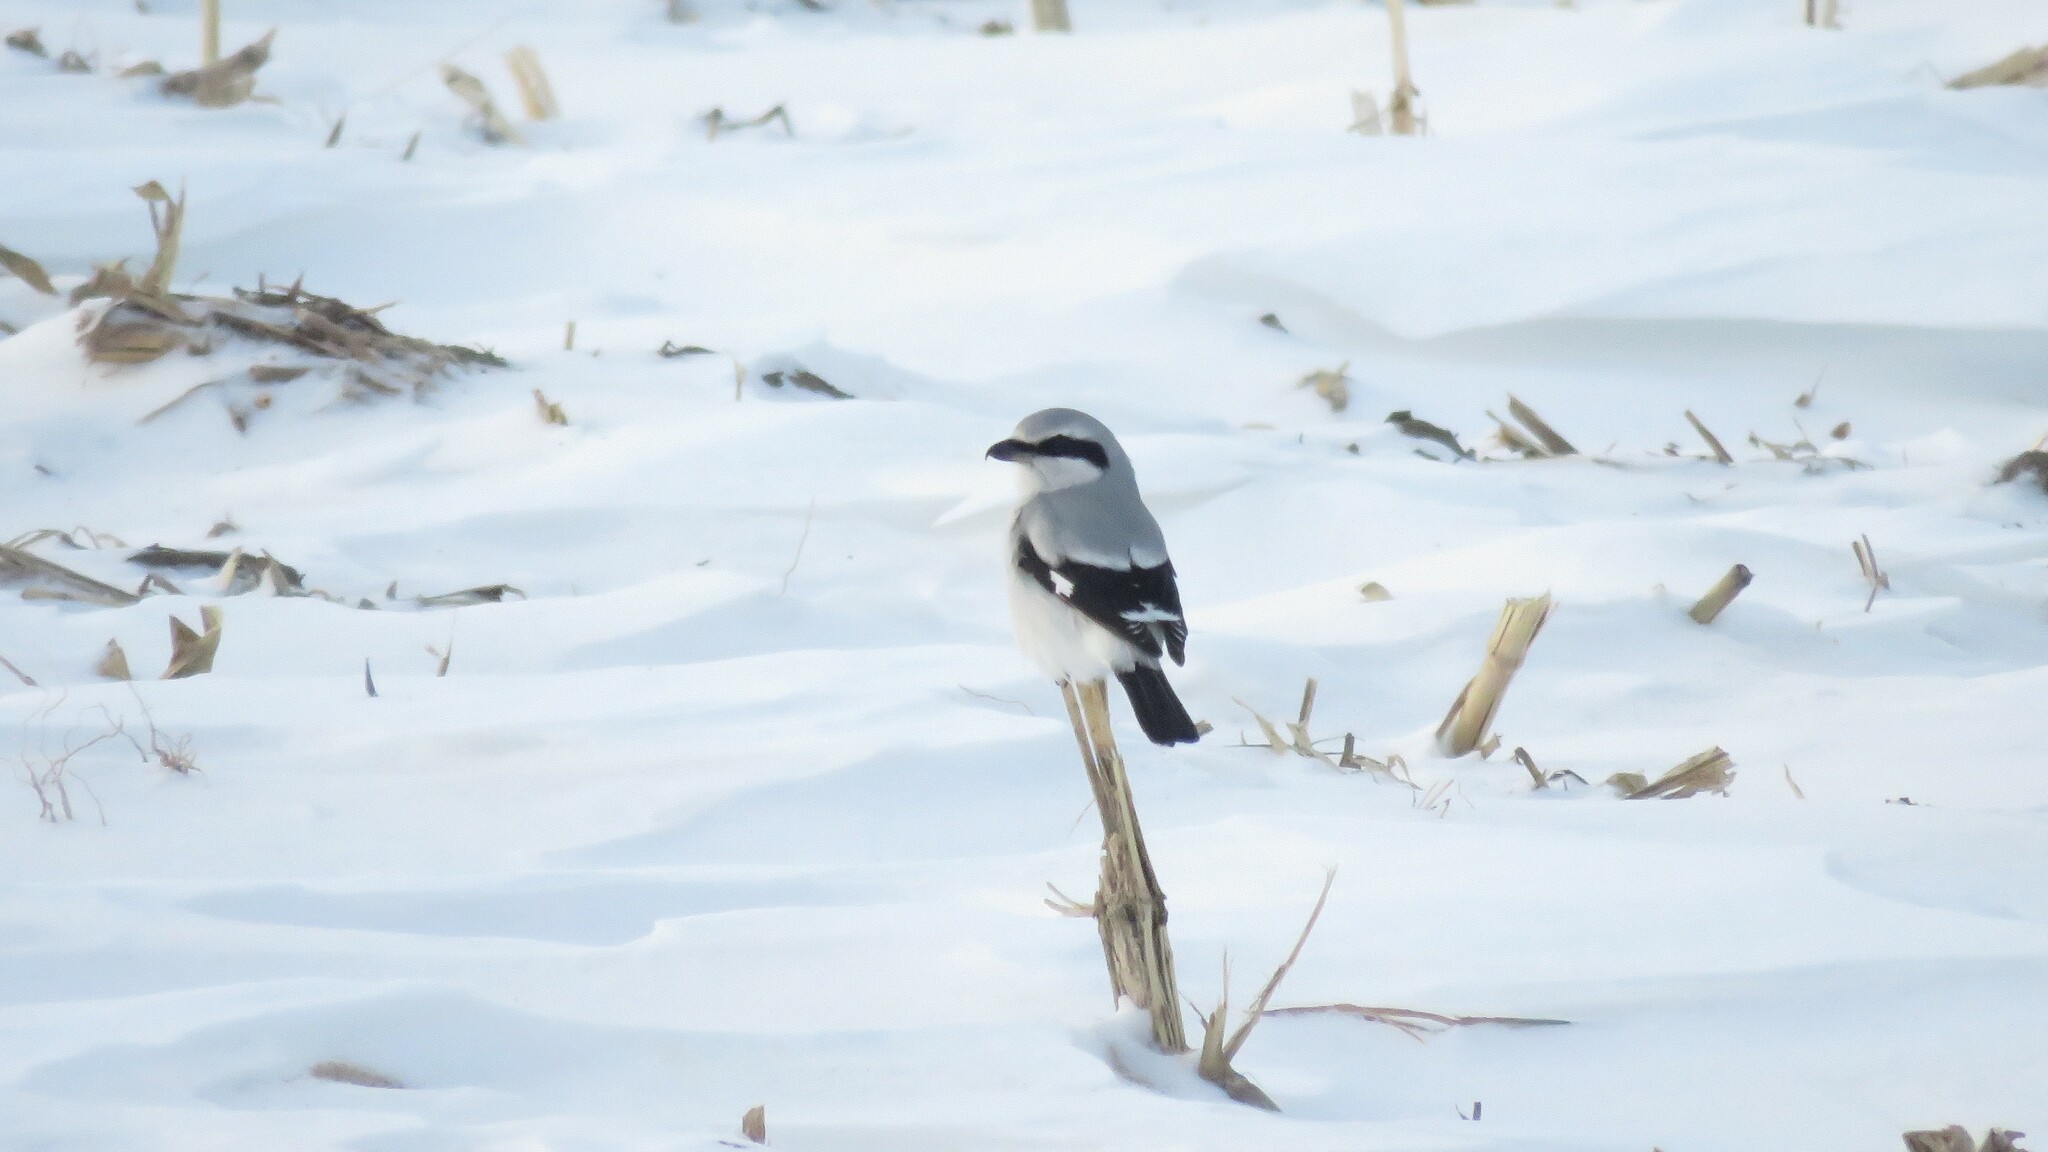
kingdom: Animalia
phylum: Chordata
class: Aves
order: Passeriformes
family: Laniidae
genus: Lanius
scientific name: Lanius borealis
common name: Northern shrike
